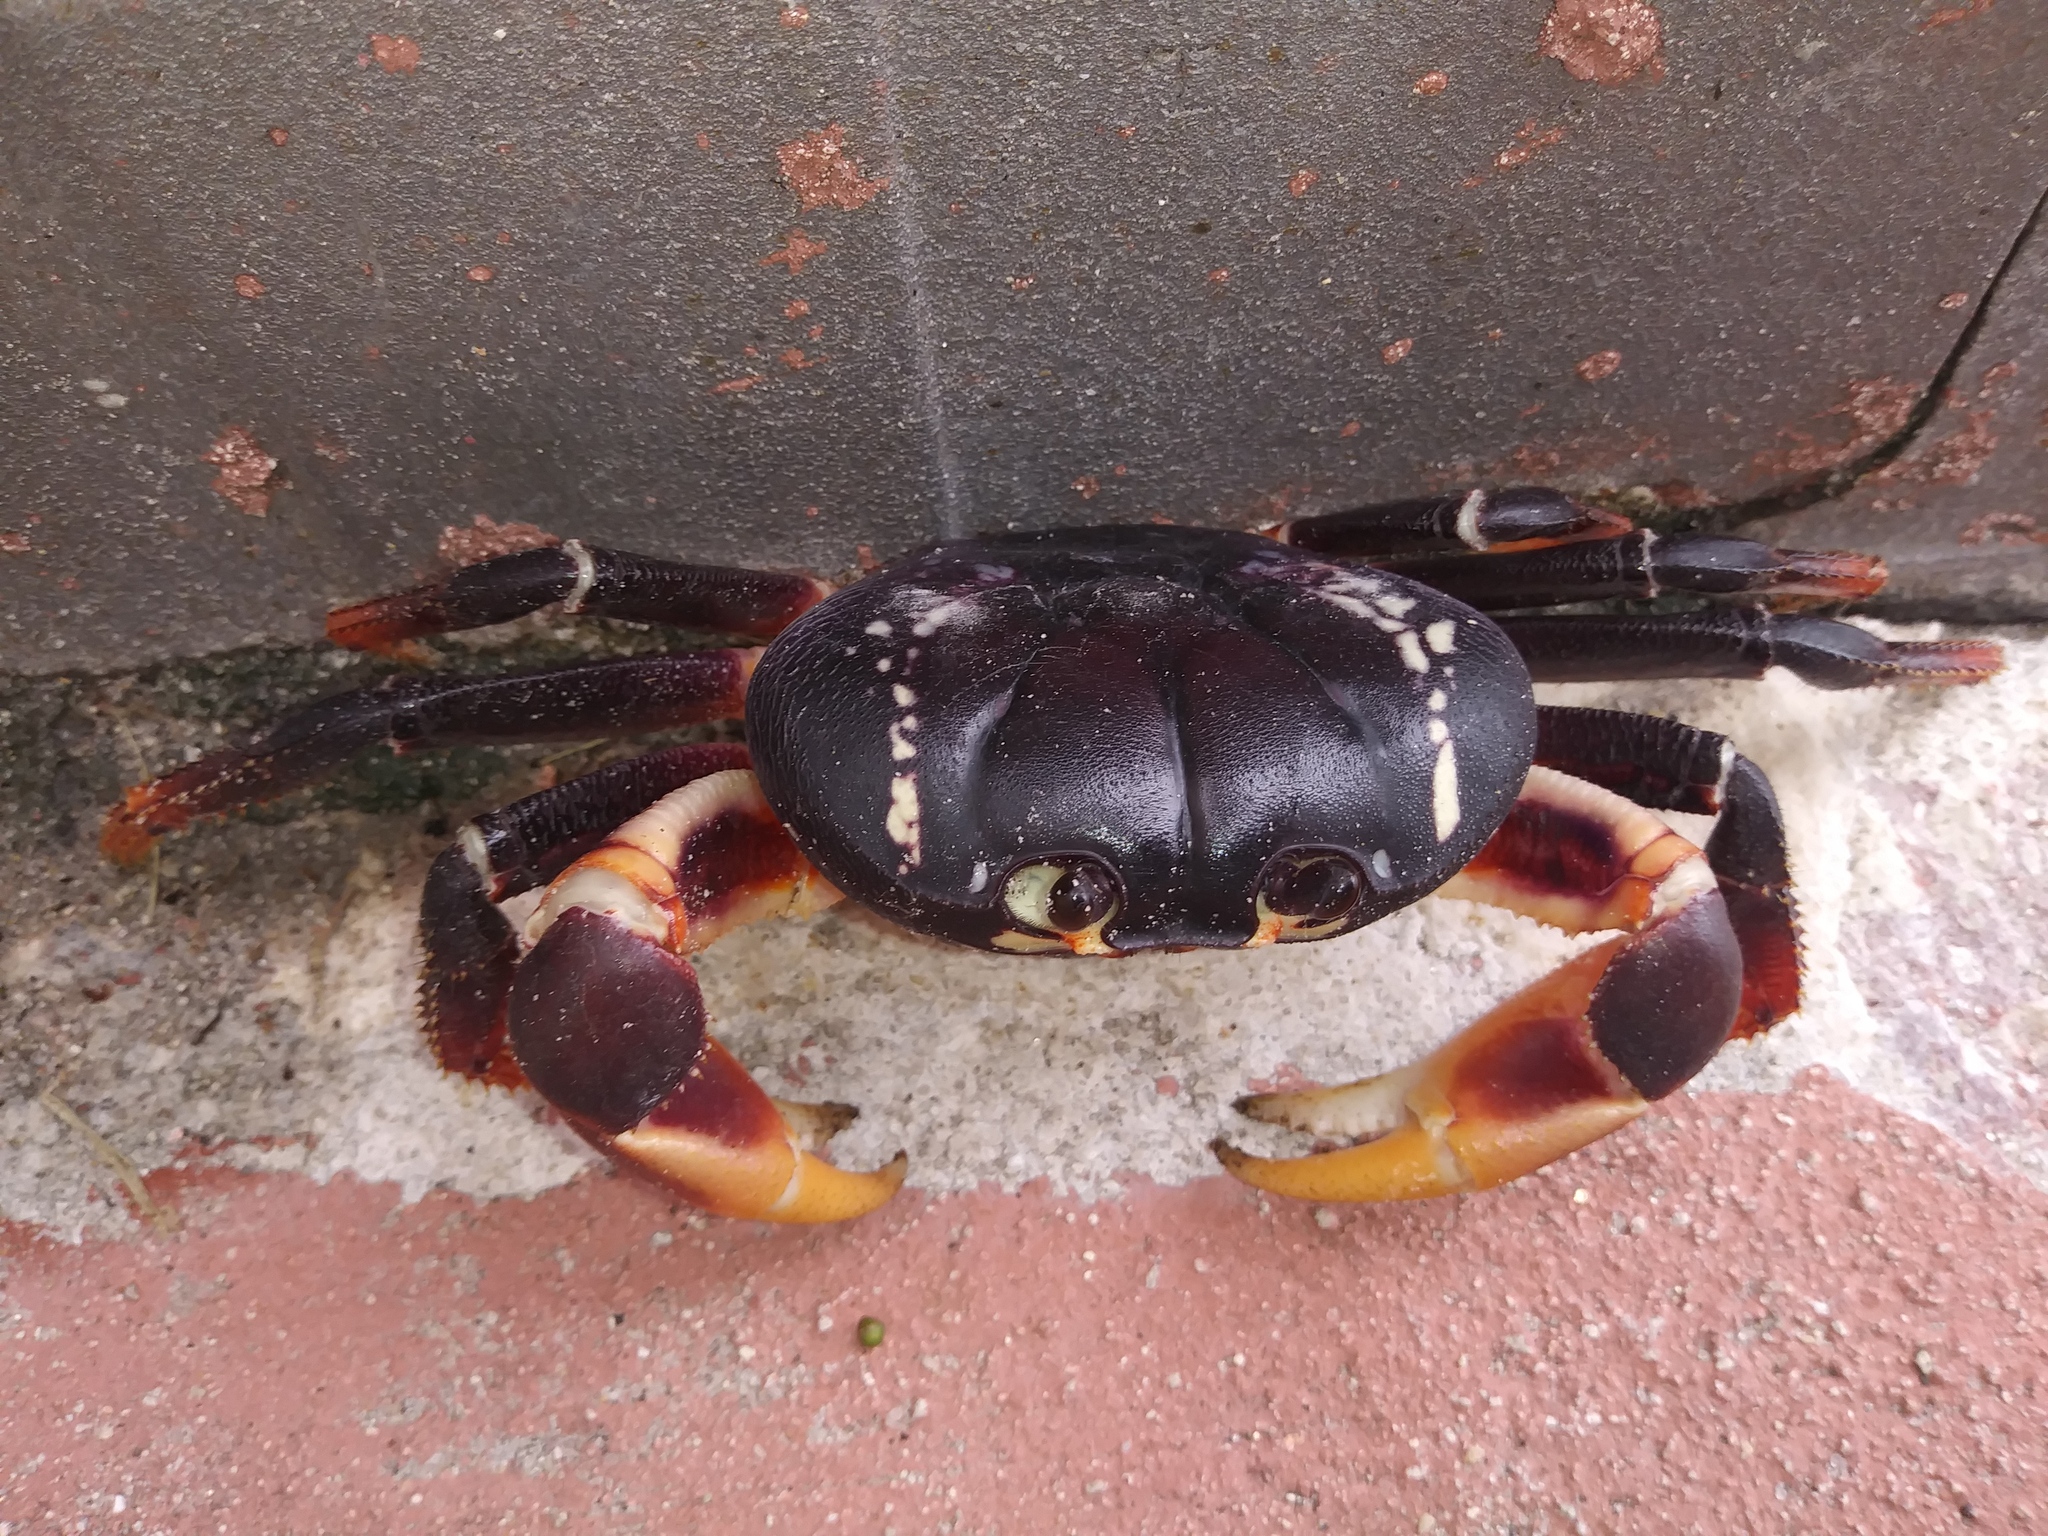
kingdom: Animalia
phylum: Arthropoda
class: Malacostraca
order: Decapoda
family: Gecarcinidae
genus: Gecarcinus
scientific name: Gecarcinus ruricola
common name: Black land crab
